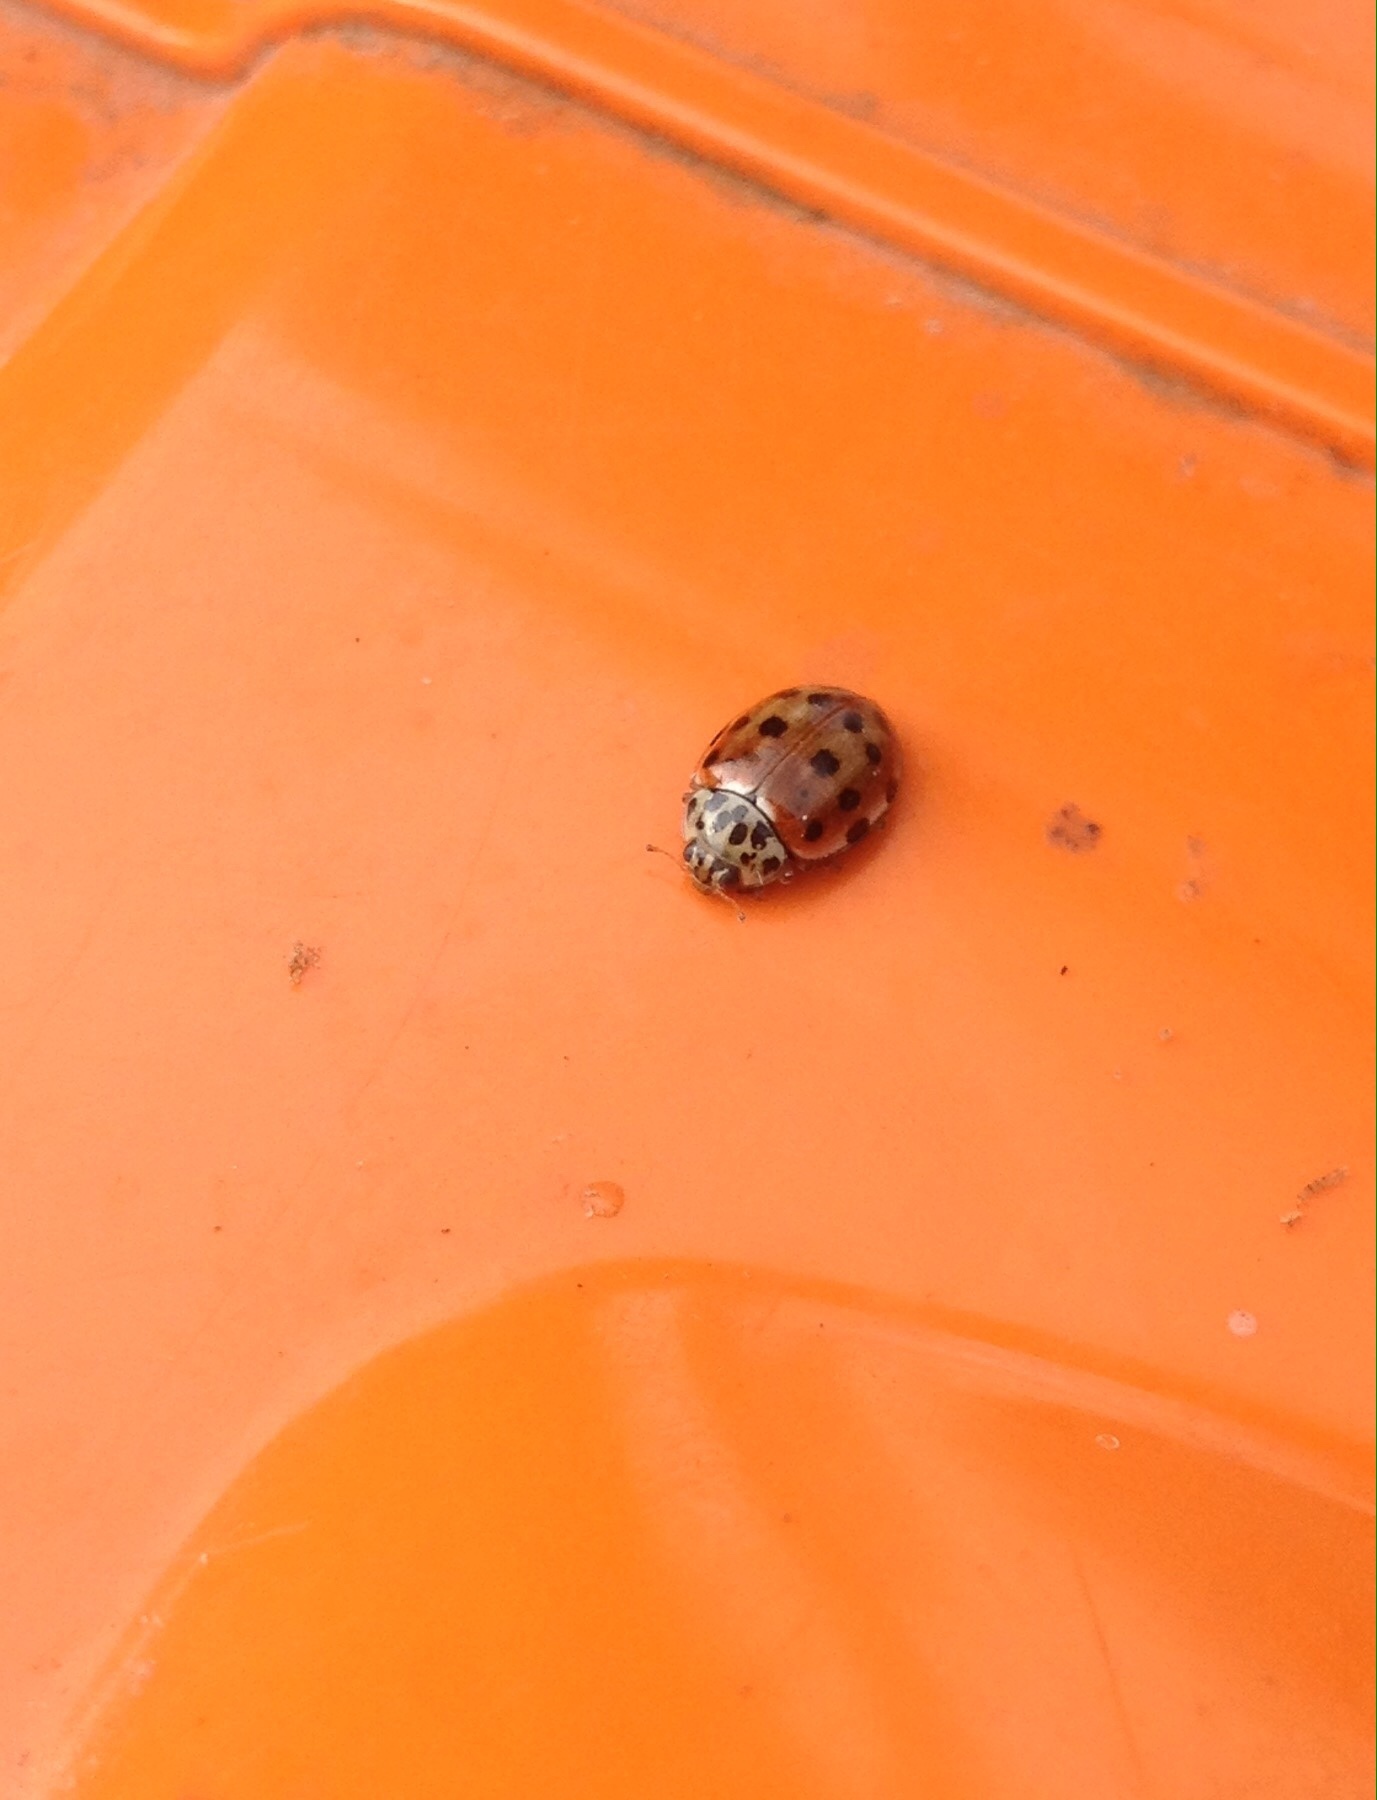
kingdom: Animalia
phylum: Arthropoda
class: Insecta
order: Coleoptera
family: Coccinellidae
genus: Harmonia
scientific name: Harmonia quadripunctata
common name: Cream-streaked ladybird
